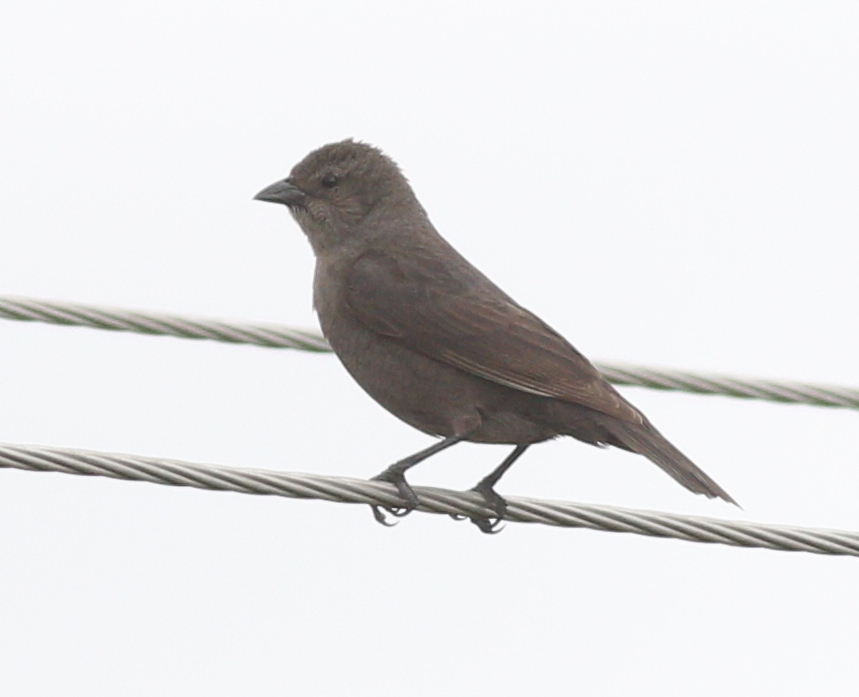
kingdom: Animalia
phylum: Chordata
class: Aves
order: Passeriformes
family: Icteridae
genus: Molothrus
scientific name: Molothrus bonariensis
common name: Shiny cowbird
